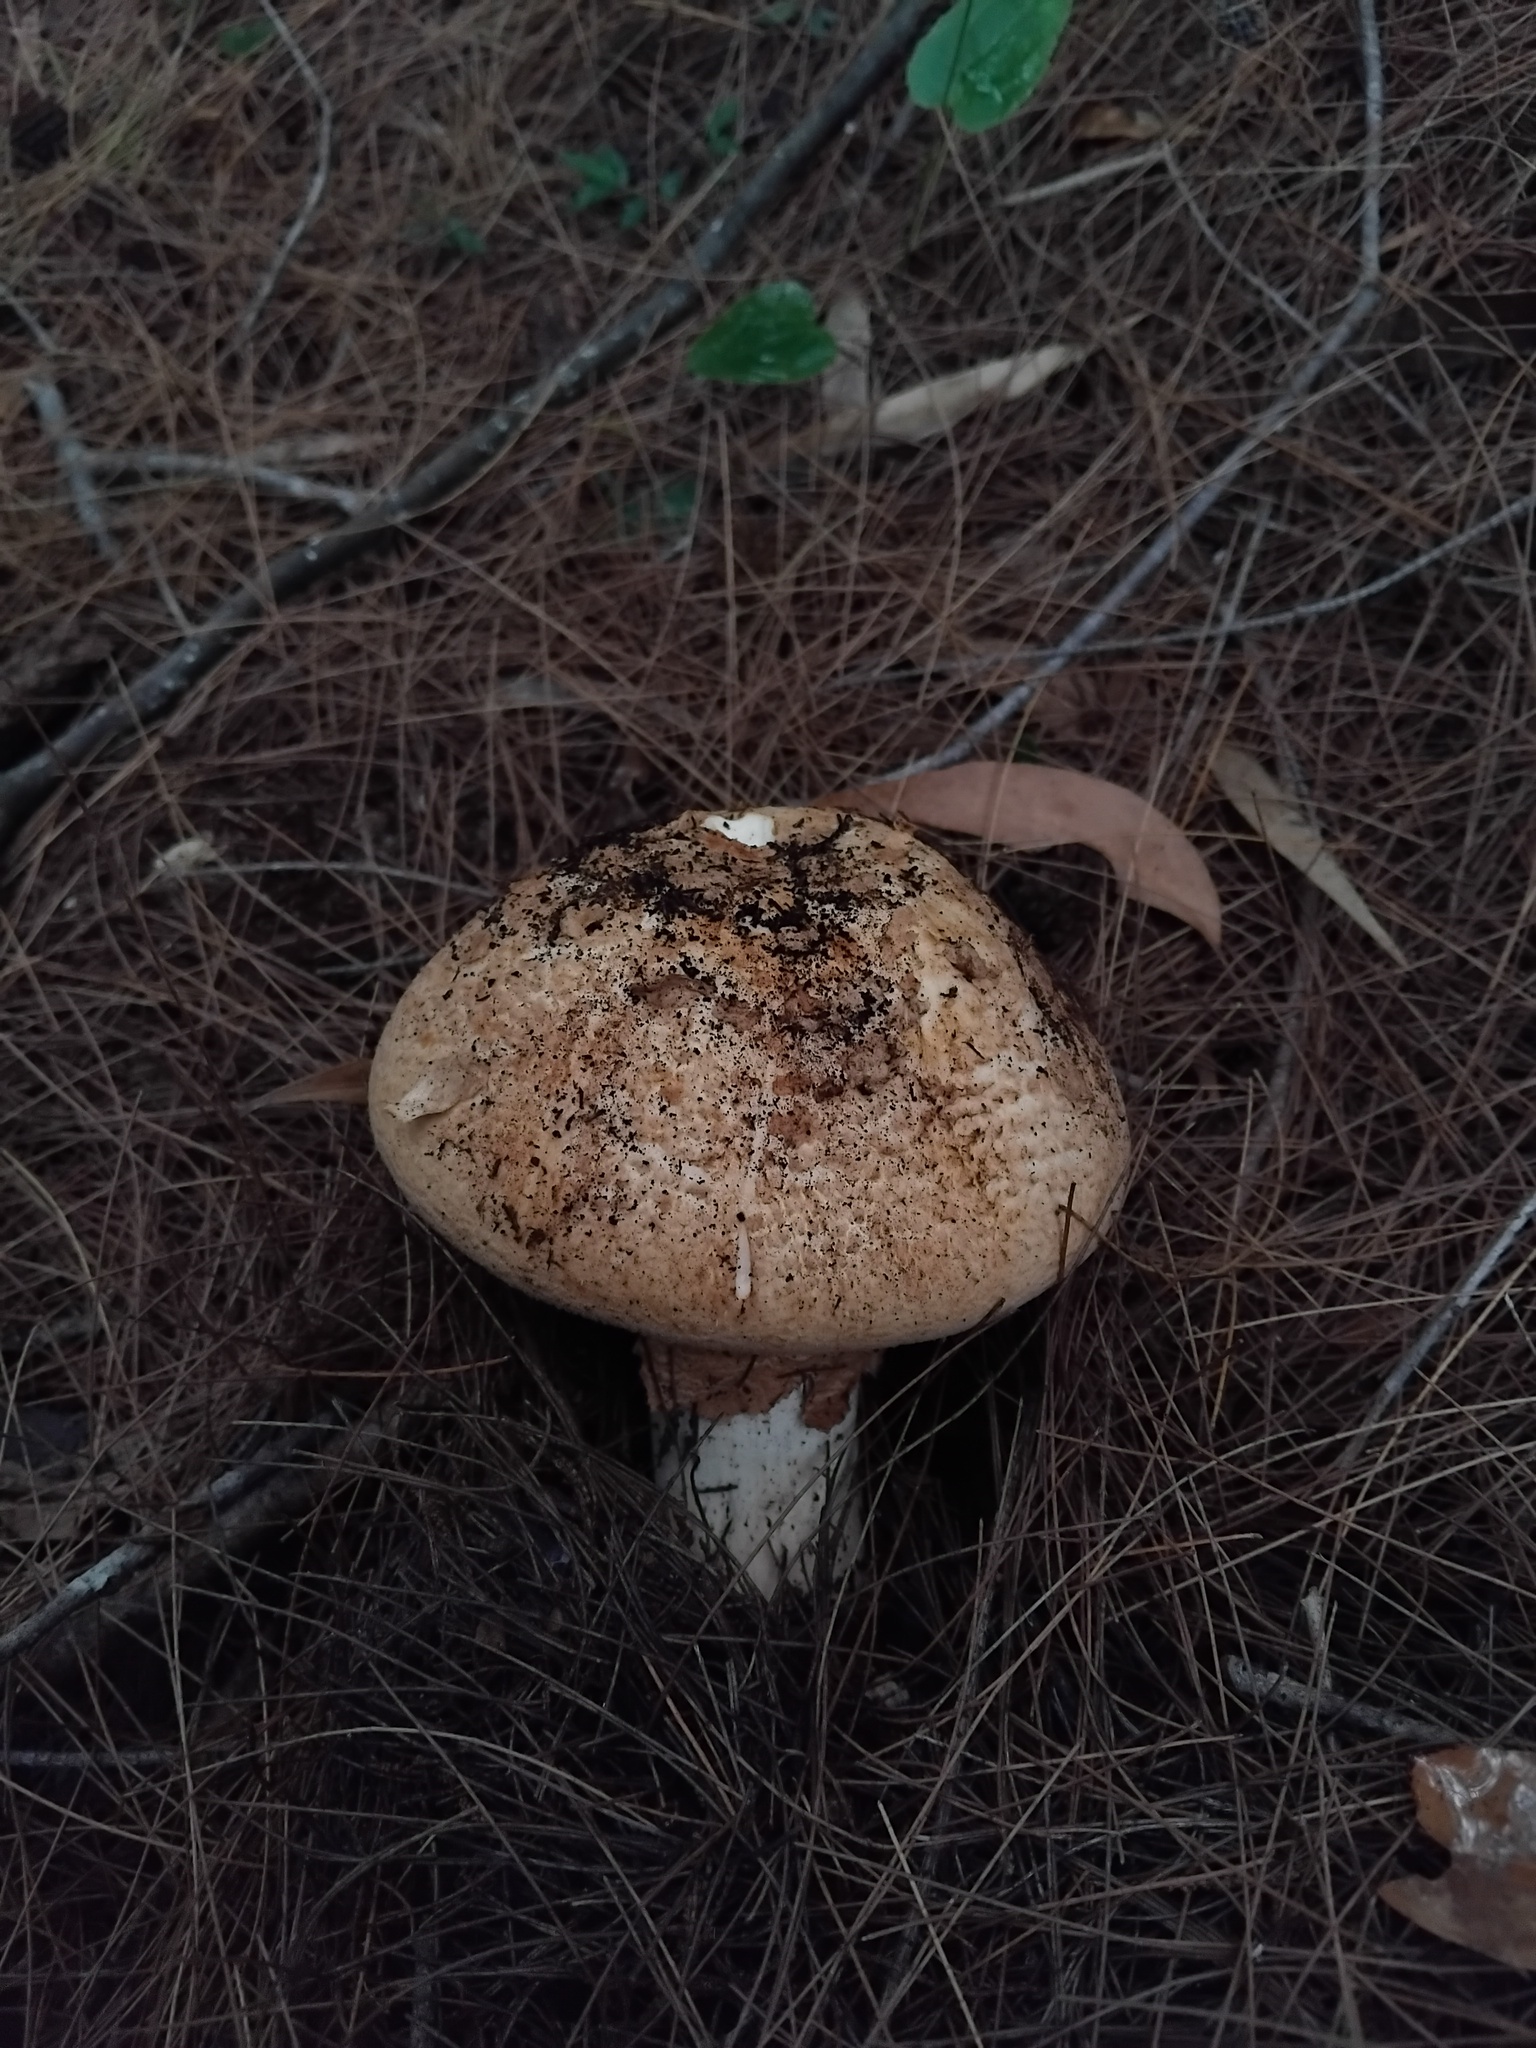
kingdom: Fungi
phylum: Basidiomycota
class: Agaricomycetes
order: Agaricales
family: Amanitaceae
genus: Amanita
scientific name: Amanita ochrophylla
